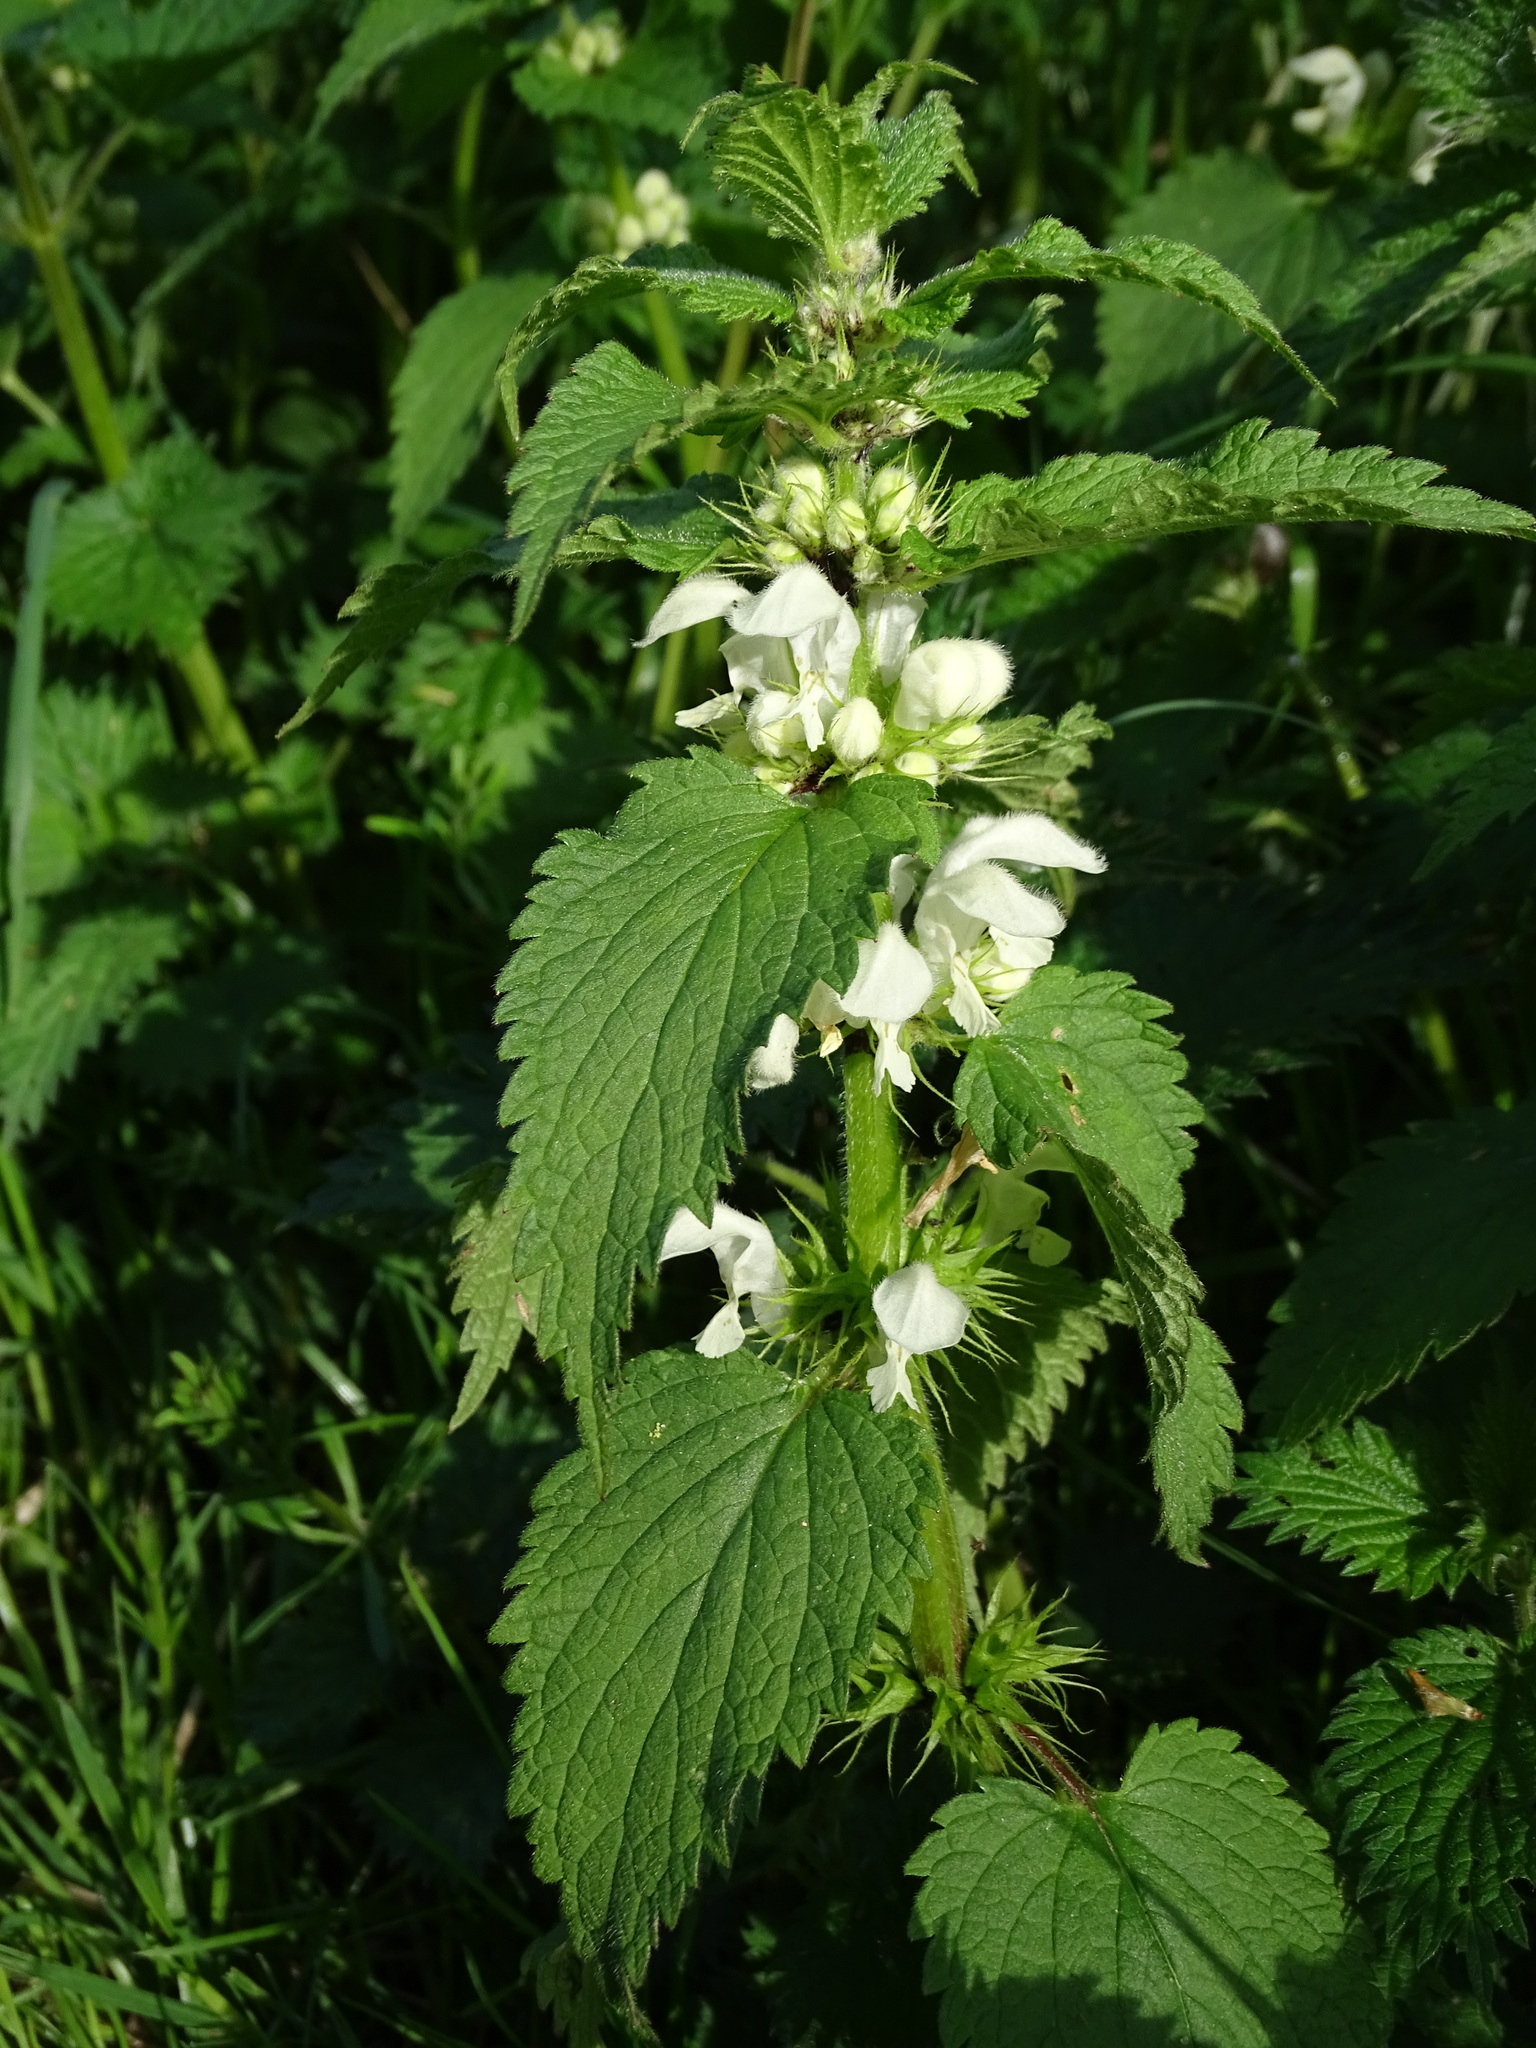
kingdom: Plantae
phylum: Tracheophyta
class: Magnoliopsida
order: Lamiales
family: Lamiaceae
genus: Lamium
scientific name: Lamium album
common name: White dead-nettle
